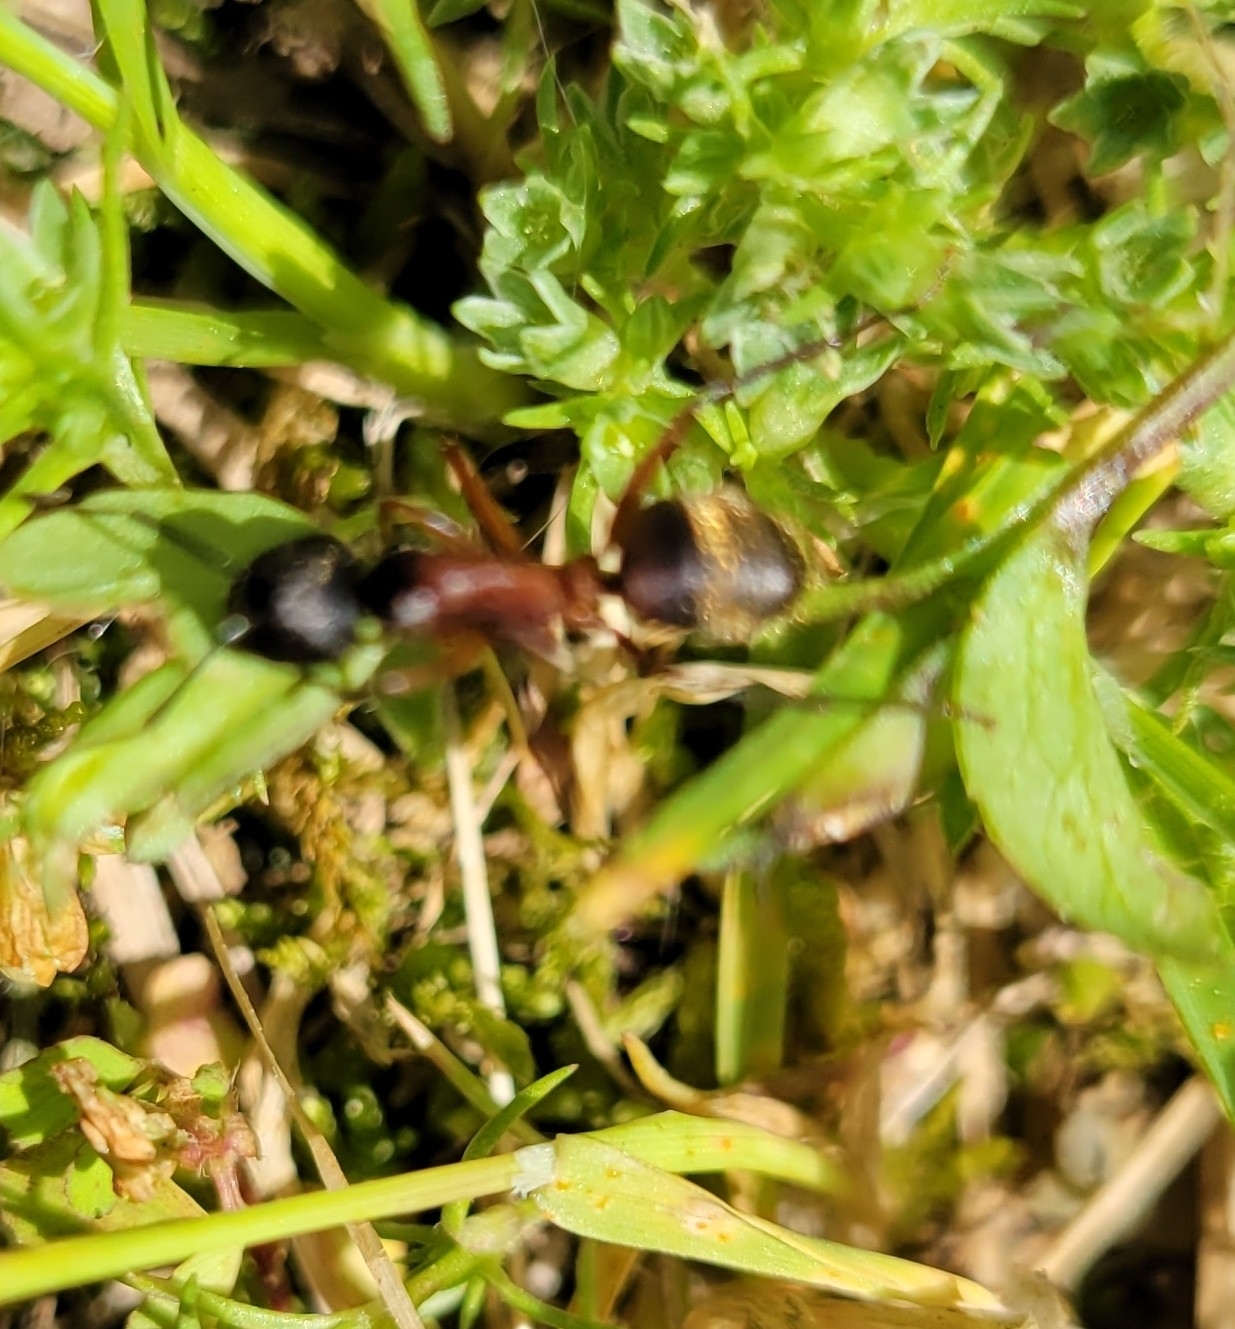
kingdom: Animalia
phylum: Arthropoda
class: Insecta
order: Hymenoptera
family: Formicidae
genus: Camponotus
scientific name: Camponotus chromaiodes
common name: Red carpenter ant
